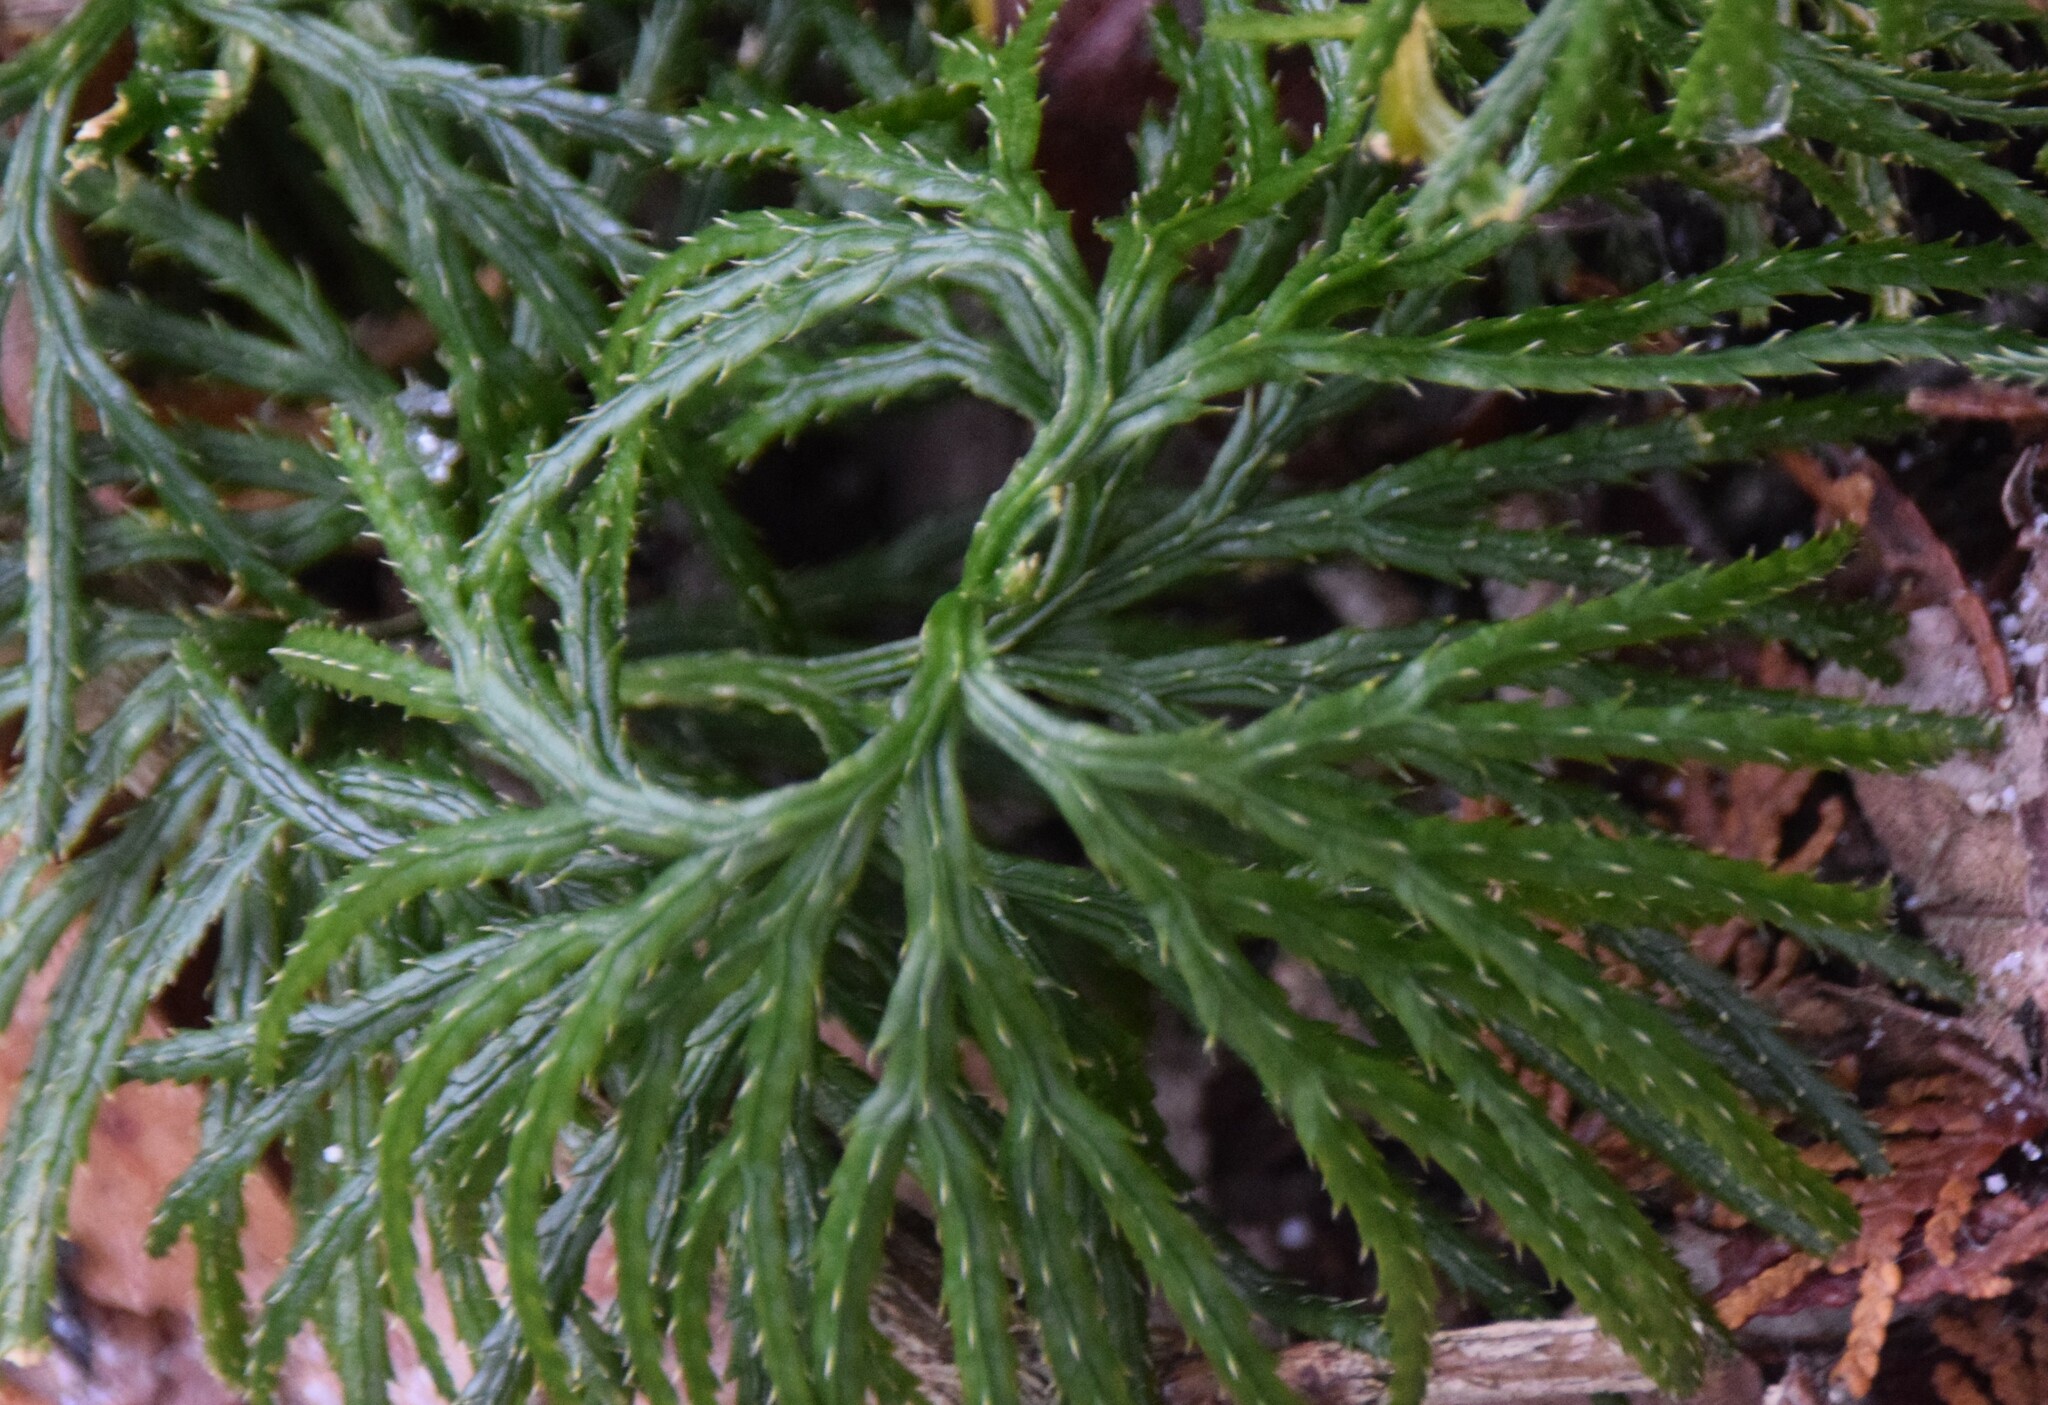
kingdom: Plantae
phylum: Tracheophyta
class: Lycopodiopsida
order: Lycopodiales
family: Lycopodiaceae
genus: Diphasiastrum
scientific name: Diphasiastrum digitatum
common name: Southern running-pine
